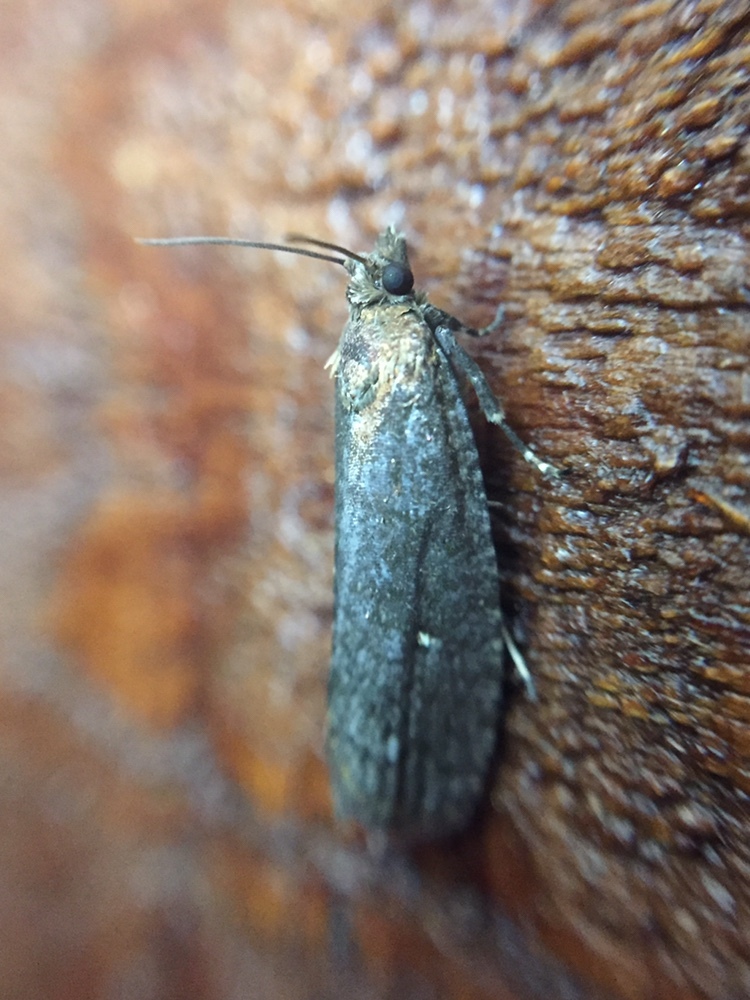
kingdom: Animalia
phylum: Arthropoda
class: Insecta
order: Lepidoptera
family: Tortricidae
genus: Cryptaspasma
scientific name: Cryptaspasma querula
